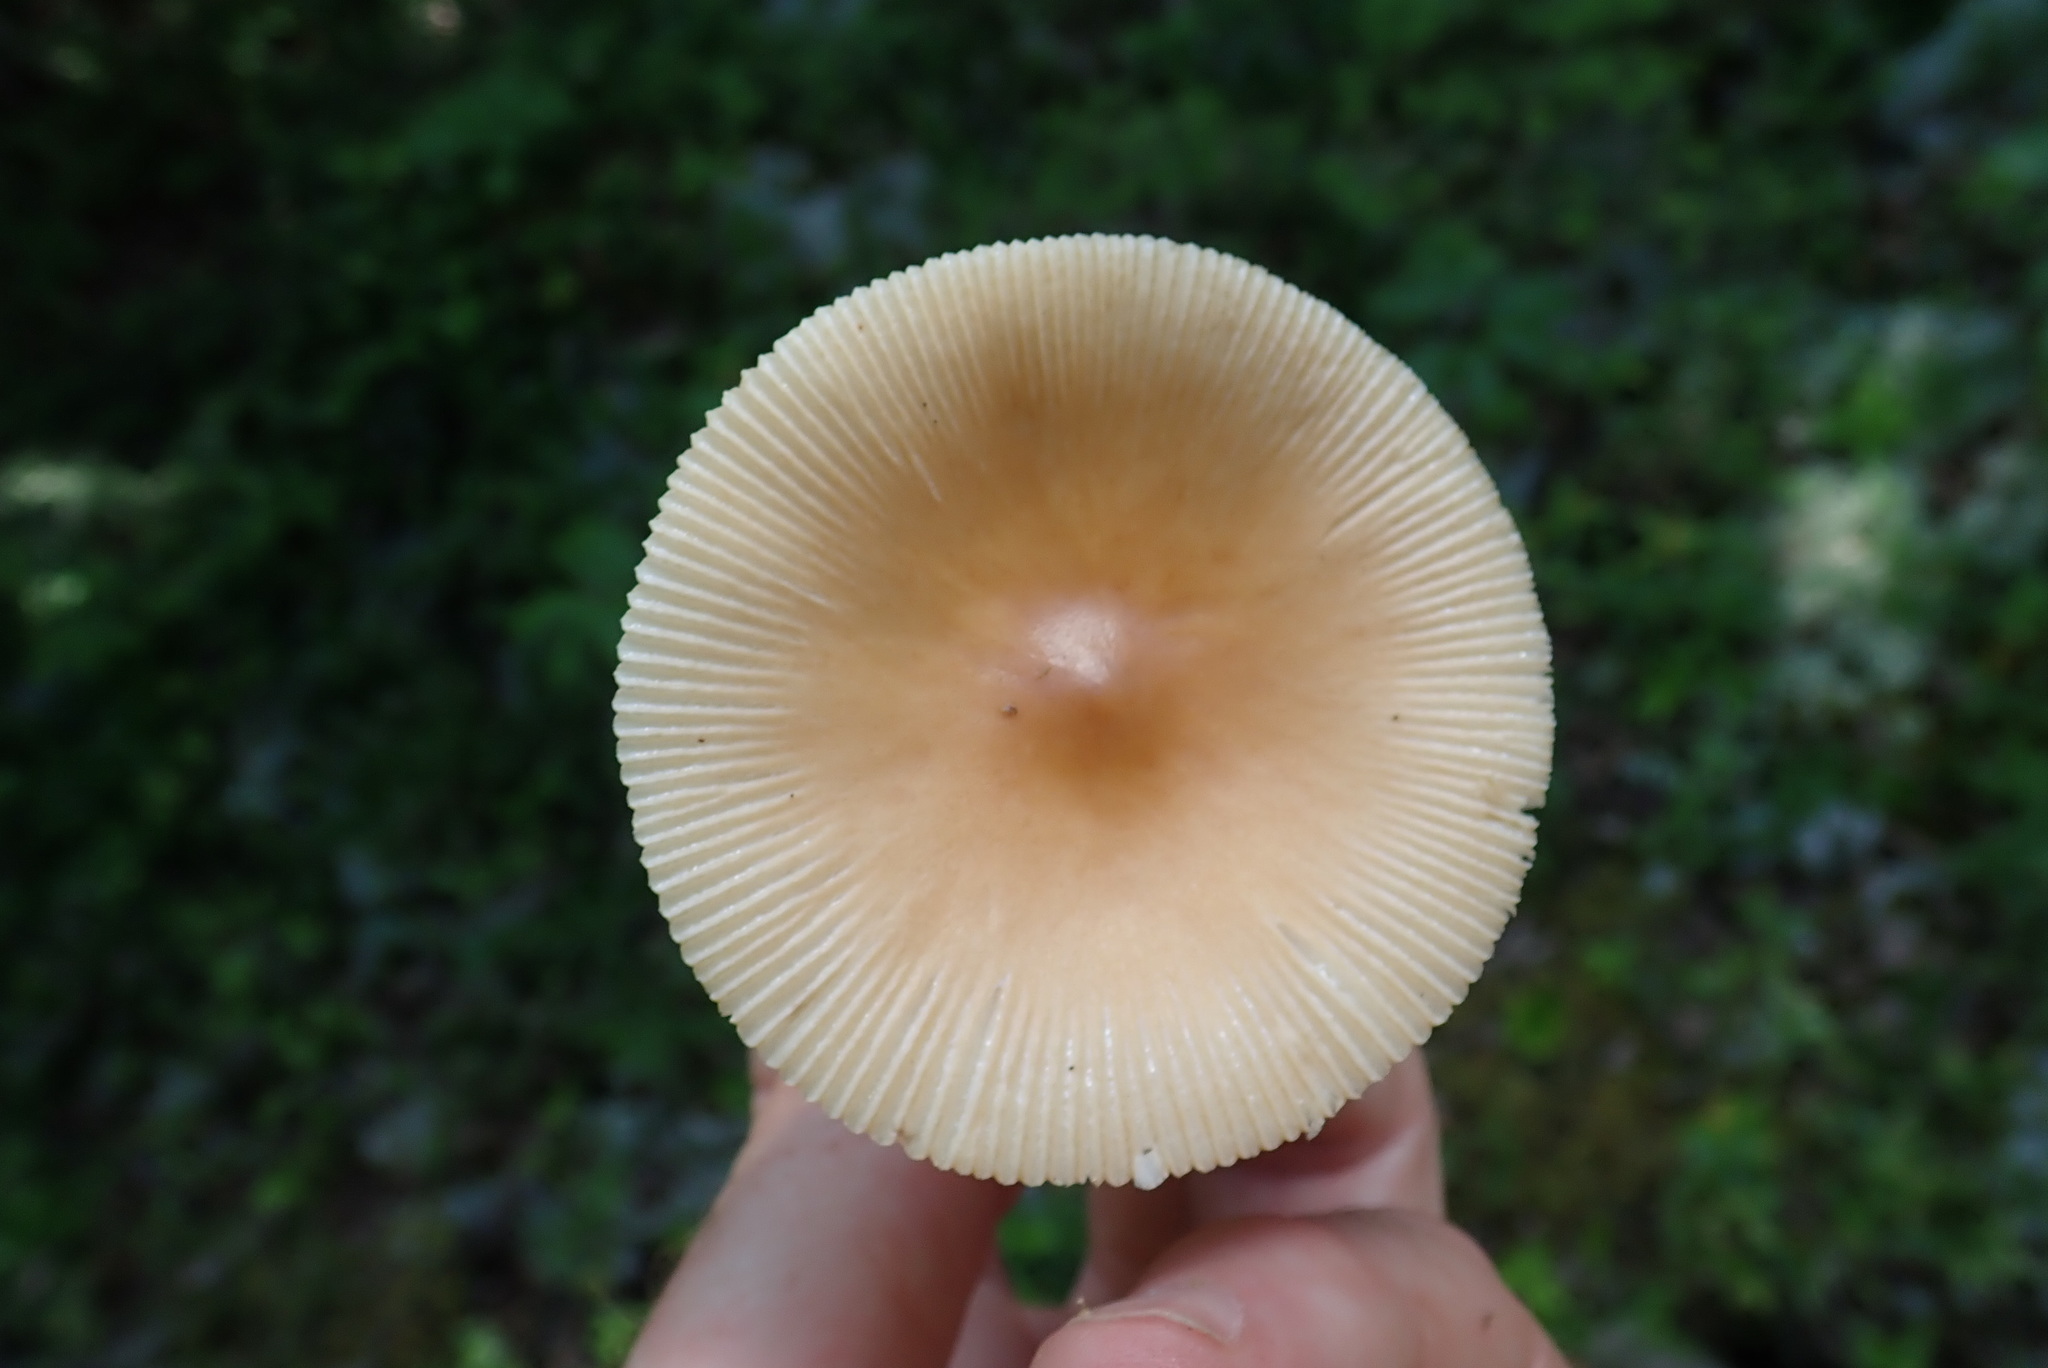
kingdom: Fungi
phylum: Basidiomycota
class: Agaricomycetes
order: Agaricales
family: Amanitaceae
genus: Amanita
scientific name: Amanita fulva
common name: Tawny grisette
